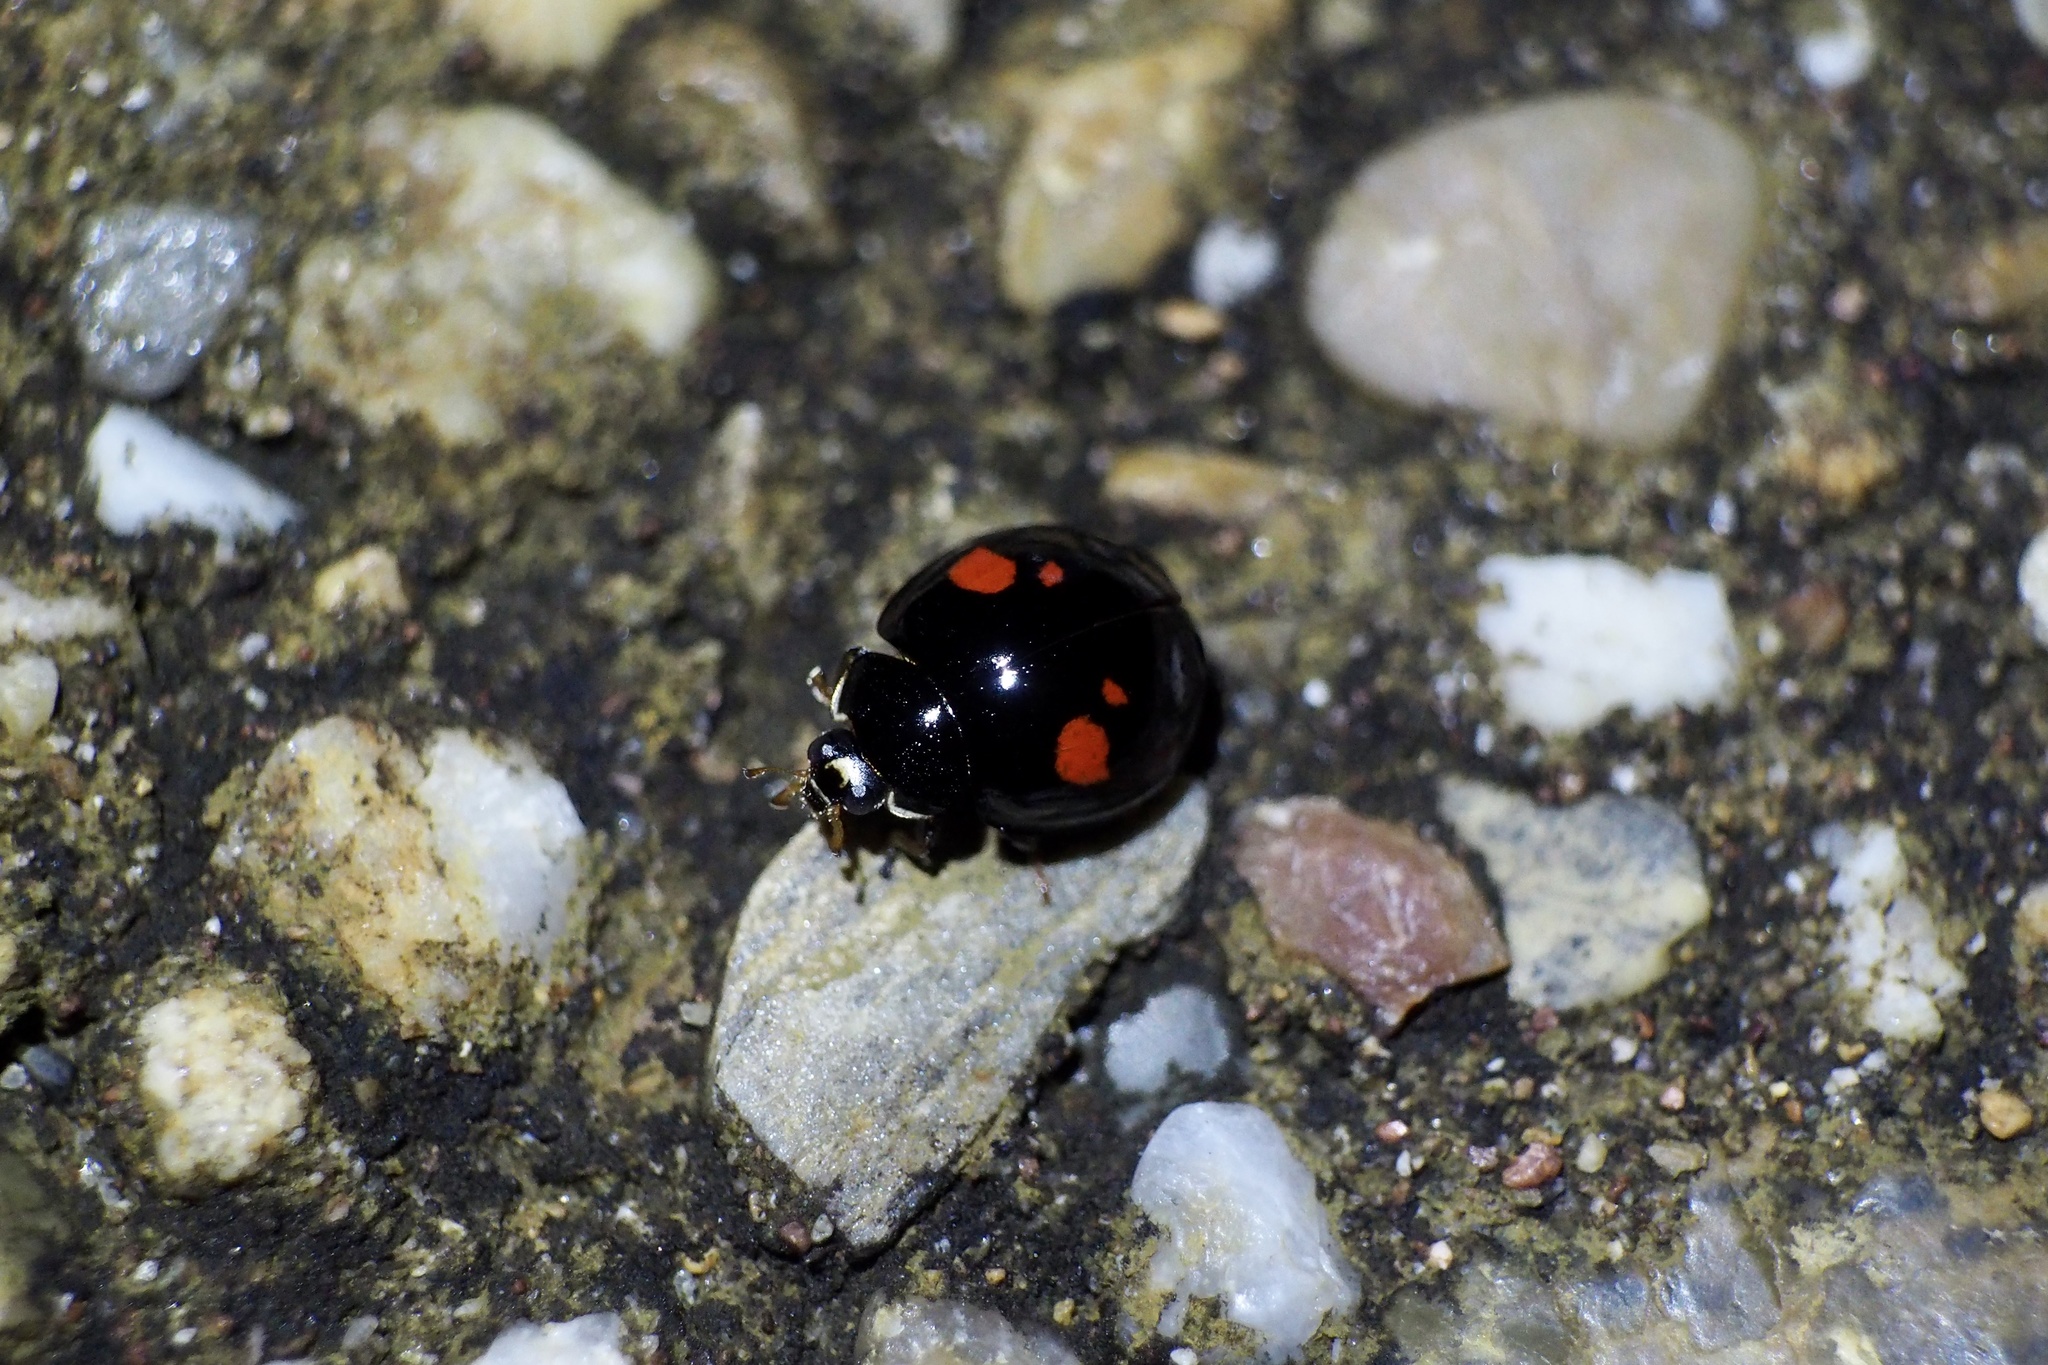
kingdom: Animalia
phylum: Arthropoda
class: Insecta
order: Coleoptera
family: Coccinellidae
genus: Harmonia
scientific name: Harmonia axyridis
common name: Harlequin ladybird
